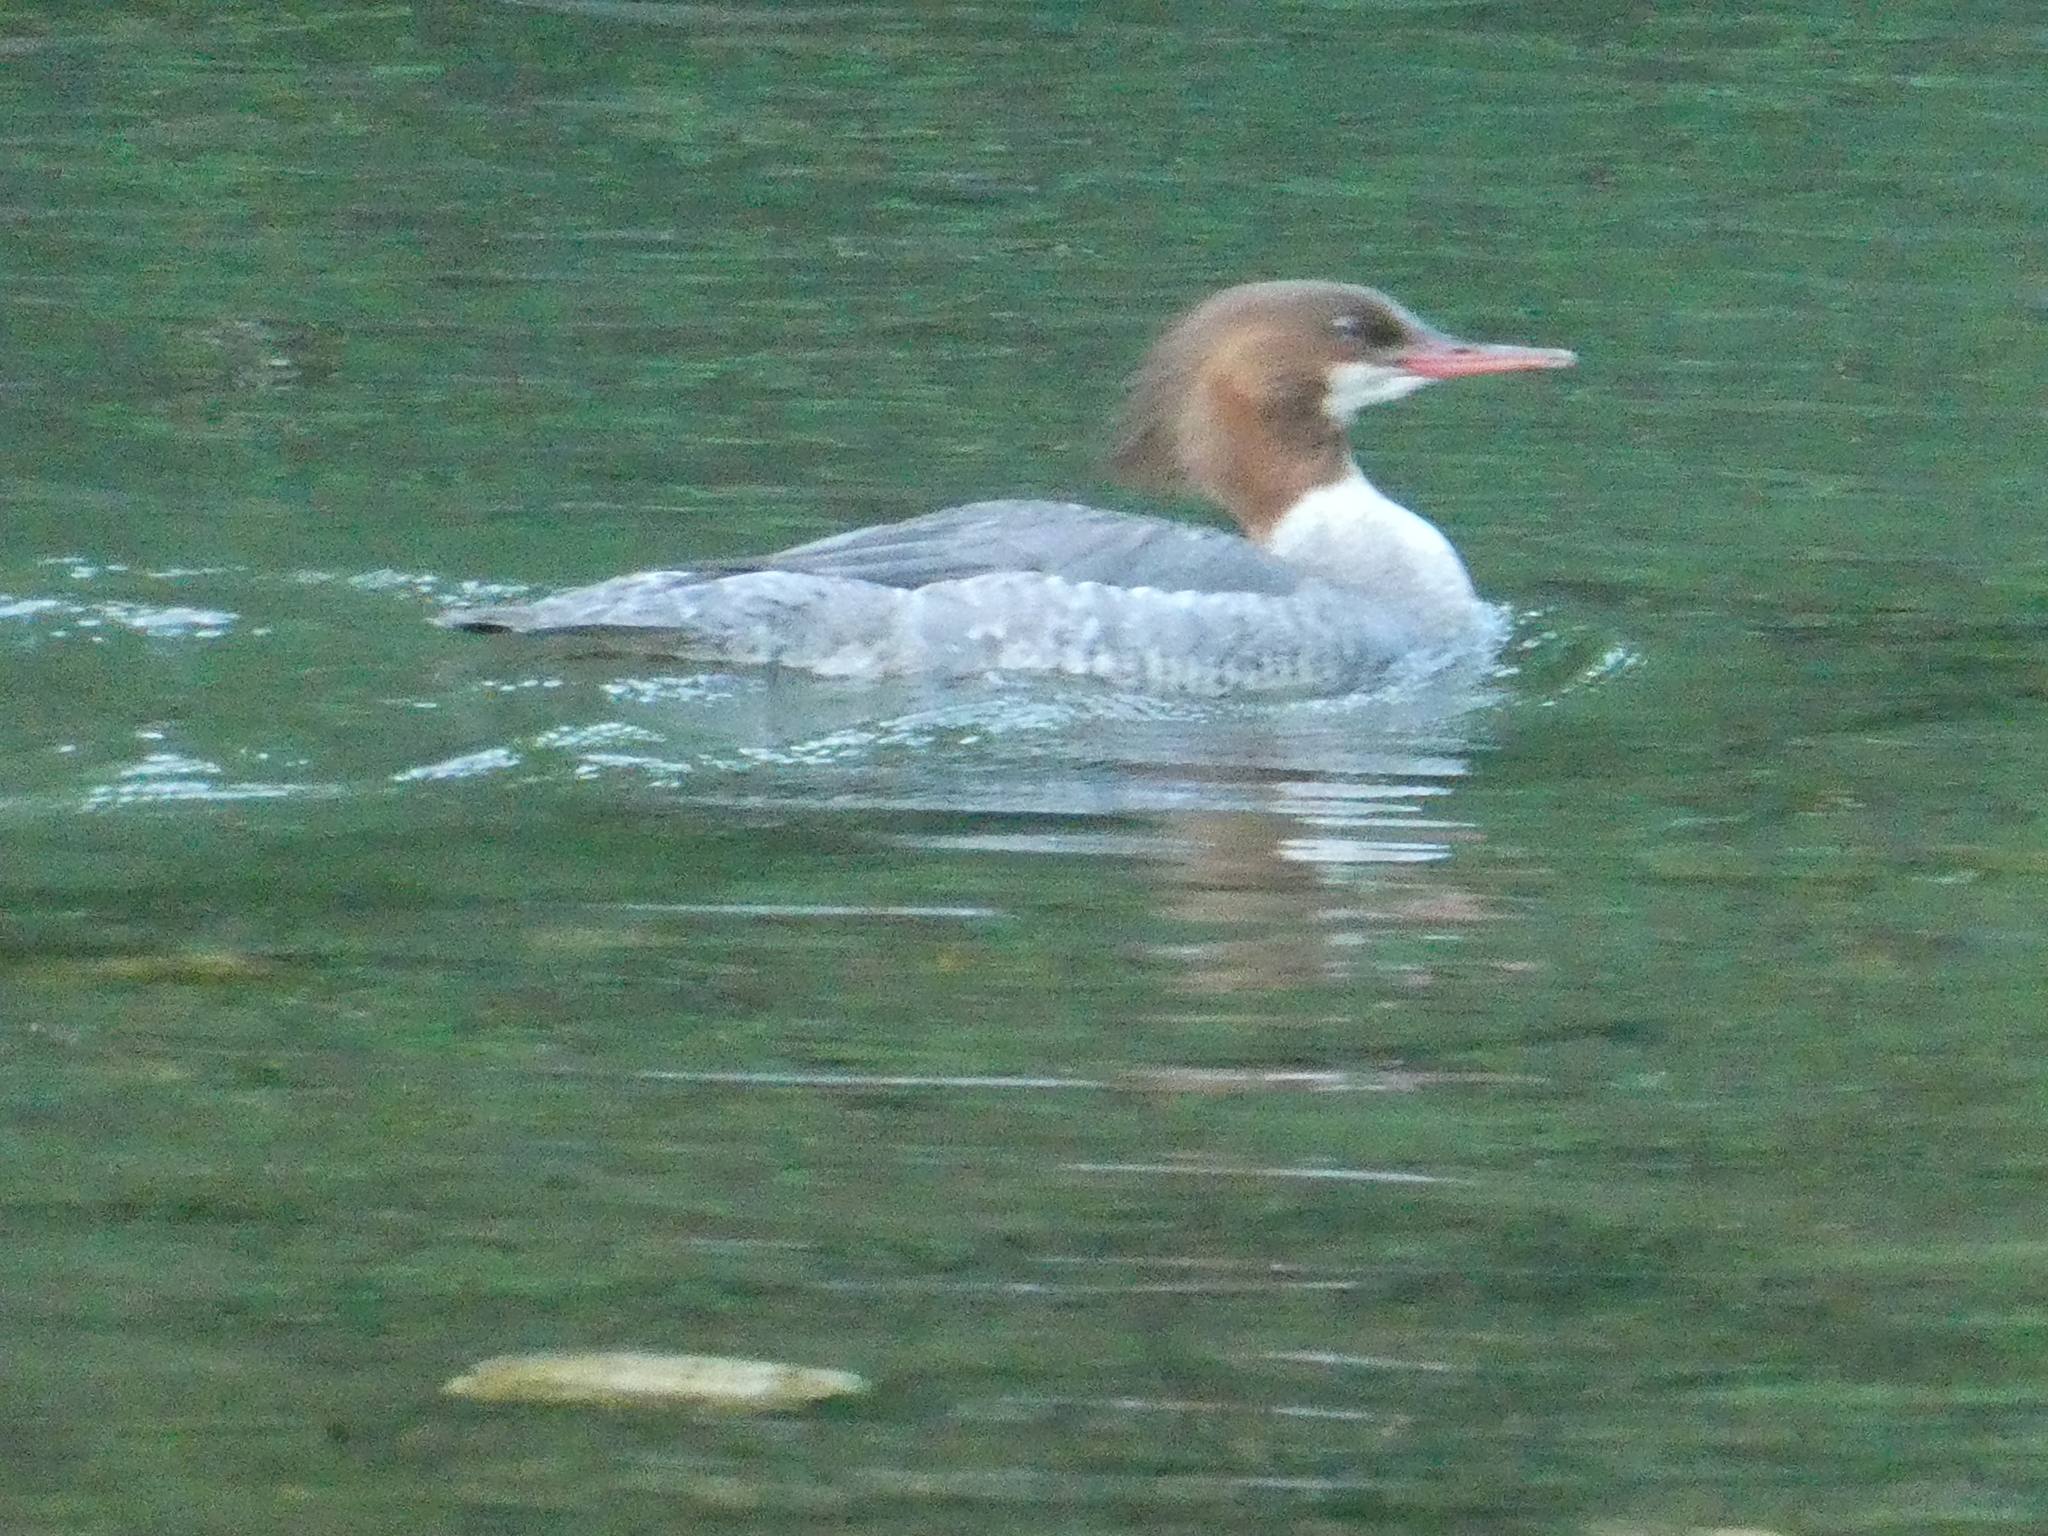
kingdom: Animalia
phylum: Chordata
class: Aves
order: Anseriformes
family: Anatidae
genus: Mergus
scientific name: Mergus merganser
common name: Common merganser
